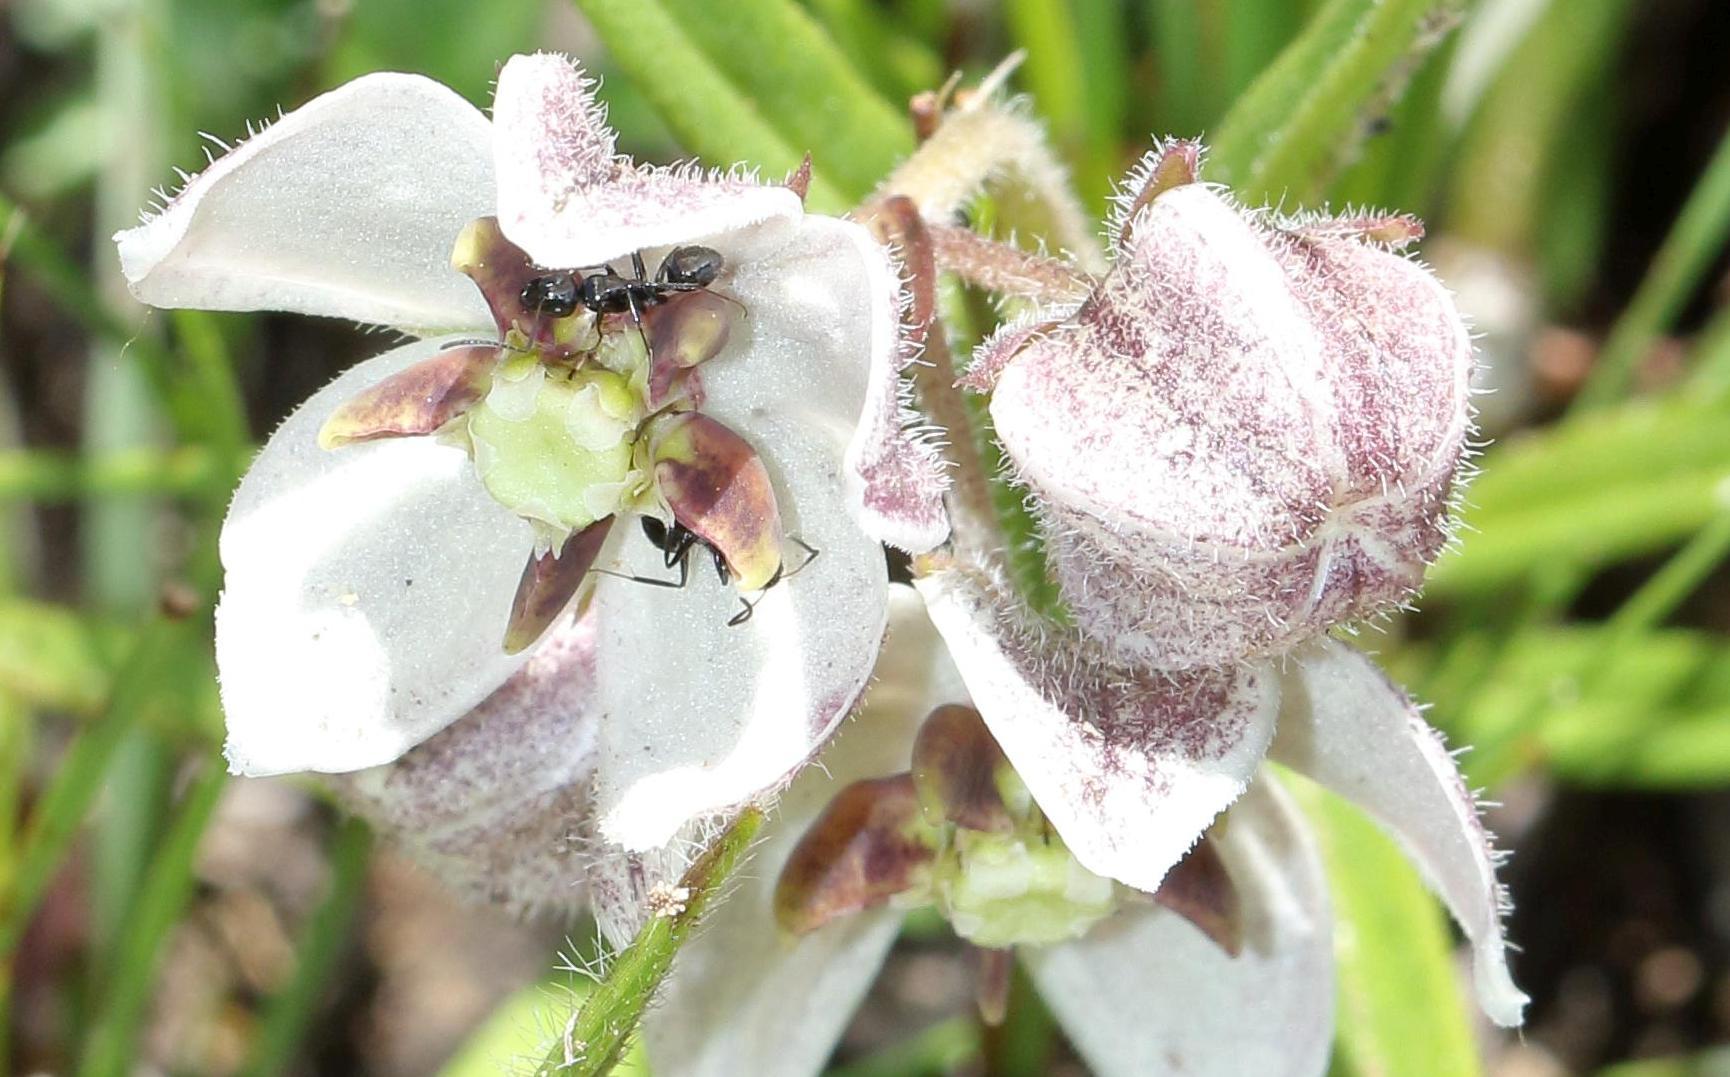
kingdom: Animalia
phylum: Arthropoda
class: Insecta
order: Hymenoptera
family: Formicidae
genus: Camponotus
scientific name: Camponotus niveosetosus
